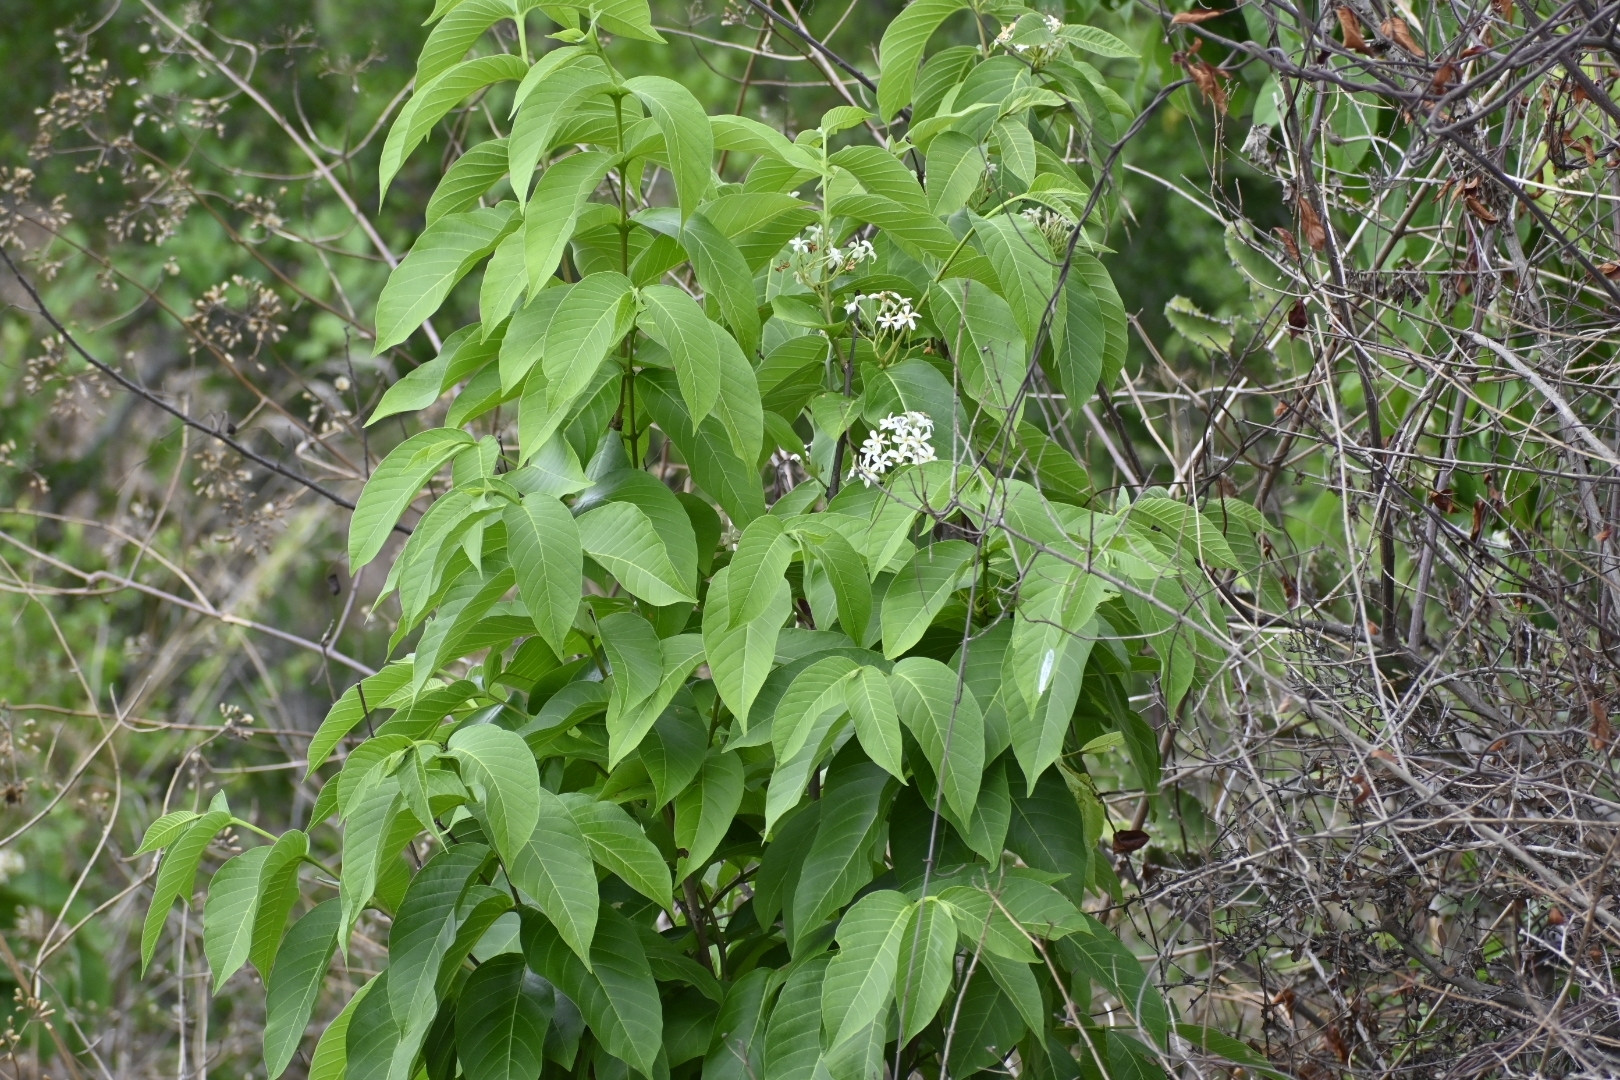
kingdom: Plantae
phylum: Tracheophyta
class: Magnoliopsida
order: Gentianales
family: Apocynaceae
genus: Holarrhena
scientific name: Holarrhena pubescens
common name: Bitter oleander
